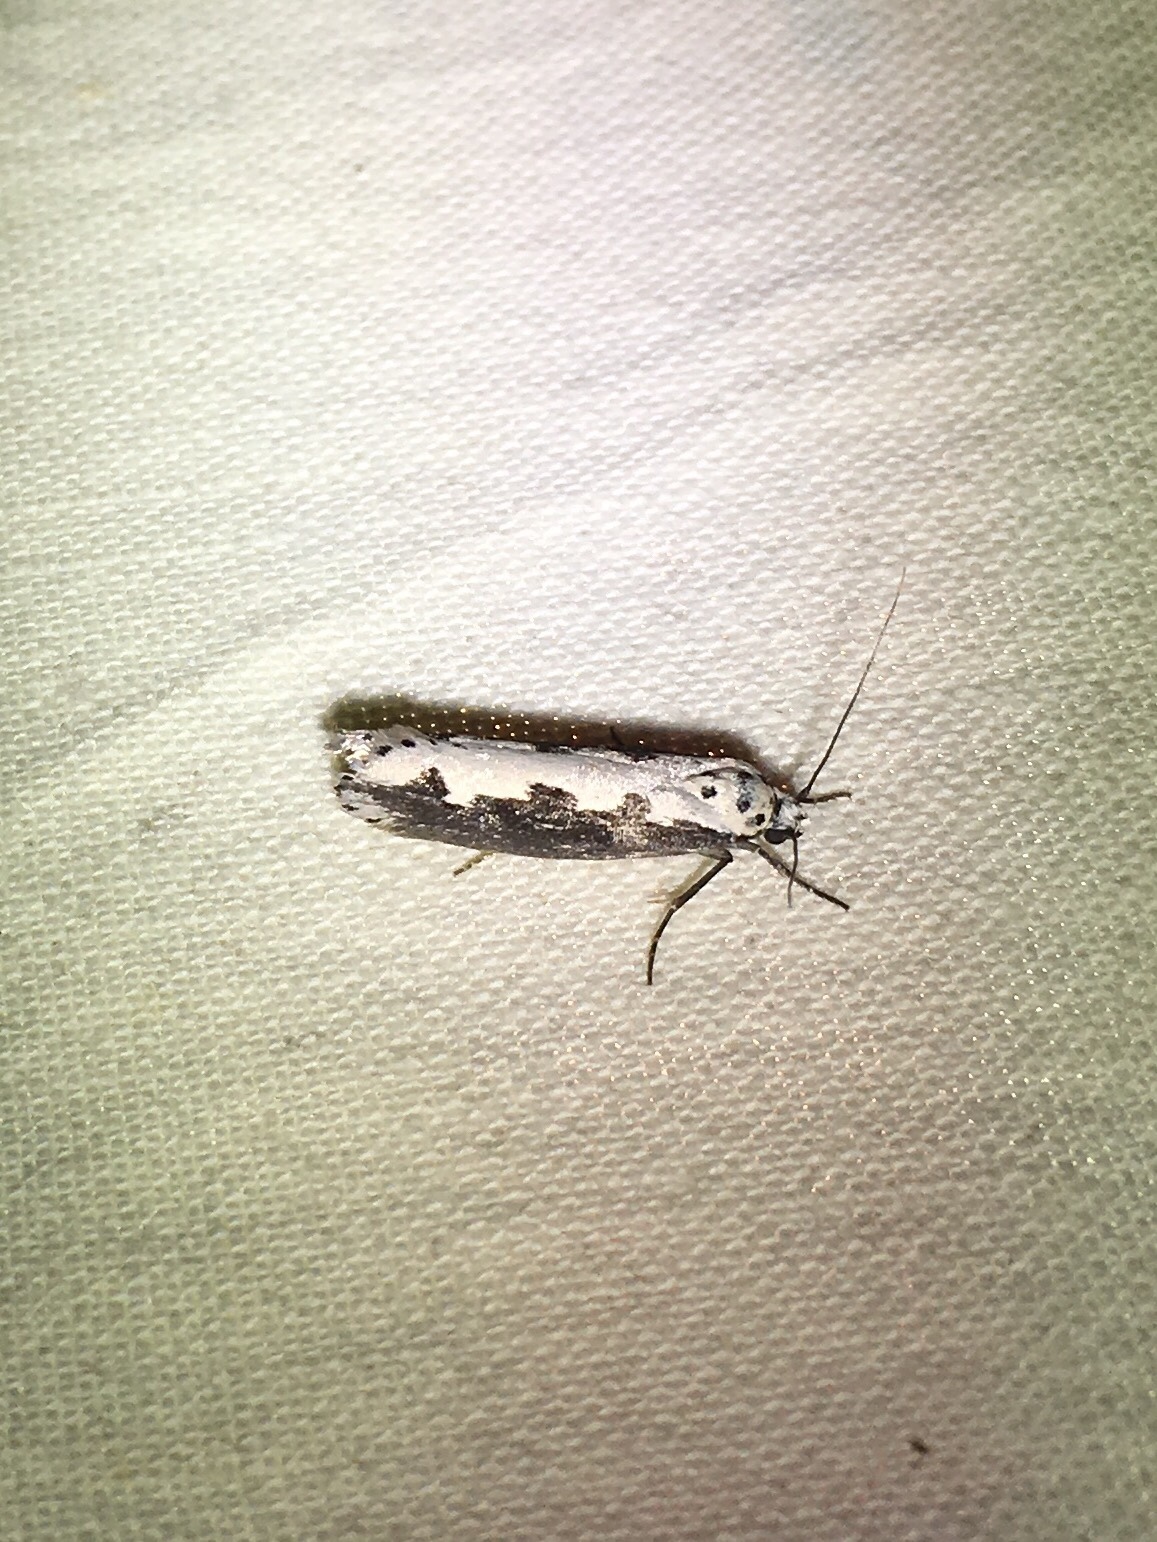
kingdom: Animalia
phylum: Arthropoda
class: Insecta
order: Lepidoptera
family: Ethmiidae
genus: Ethmia
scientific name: Ethmia bipunctella
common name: Bordered ermel
